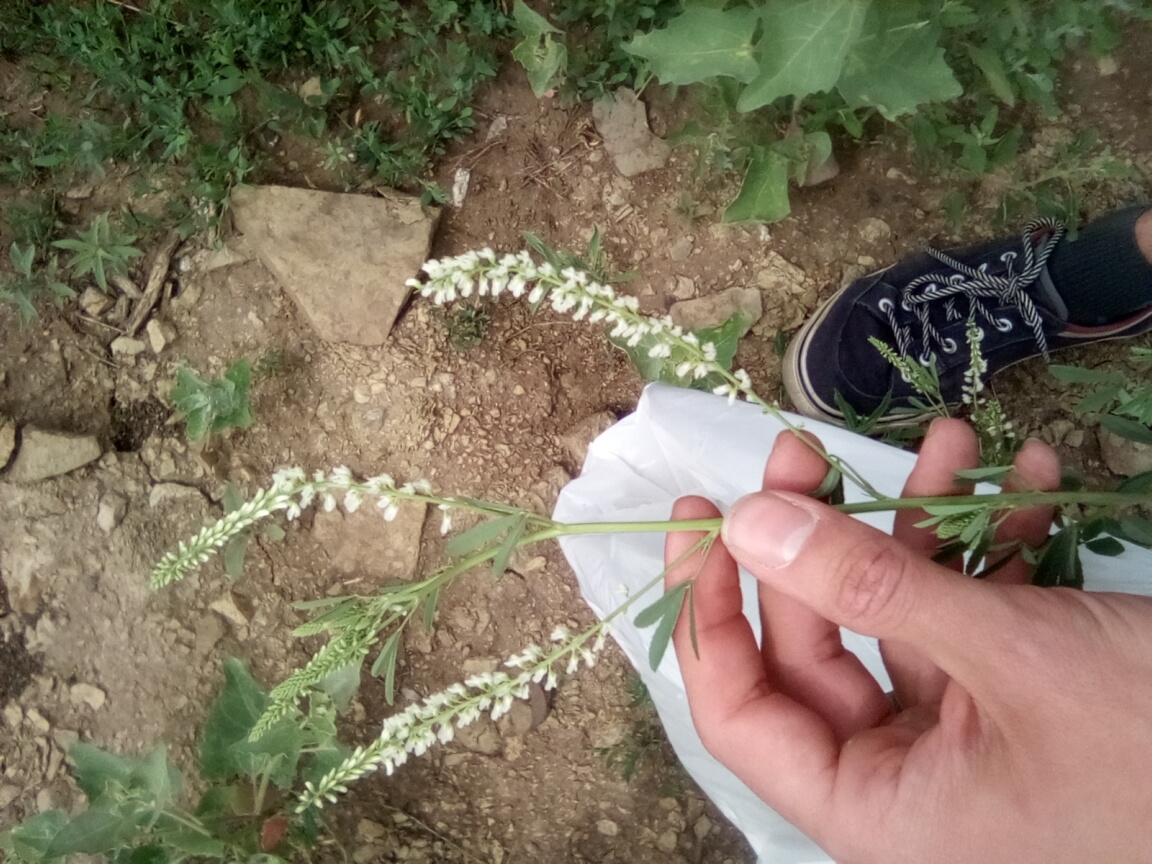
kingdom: Plantae
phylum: Tracheophyta
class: Magnoliopsida
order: Fabales
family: Fabaceae
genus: Melilotus
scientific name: Melilotus albus
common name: White melilot
